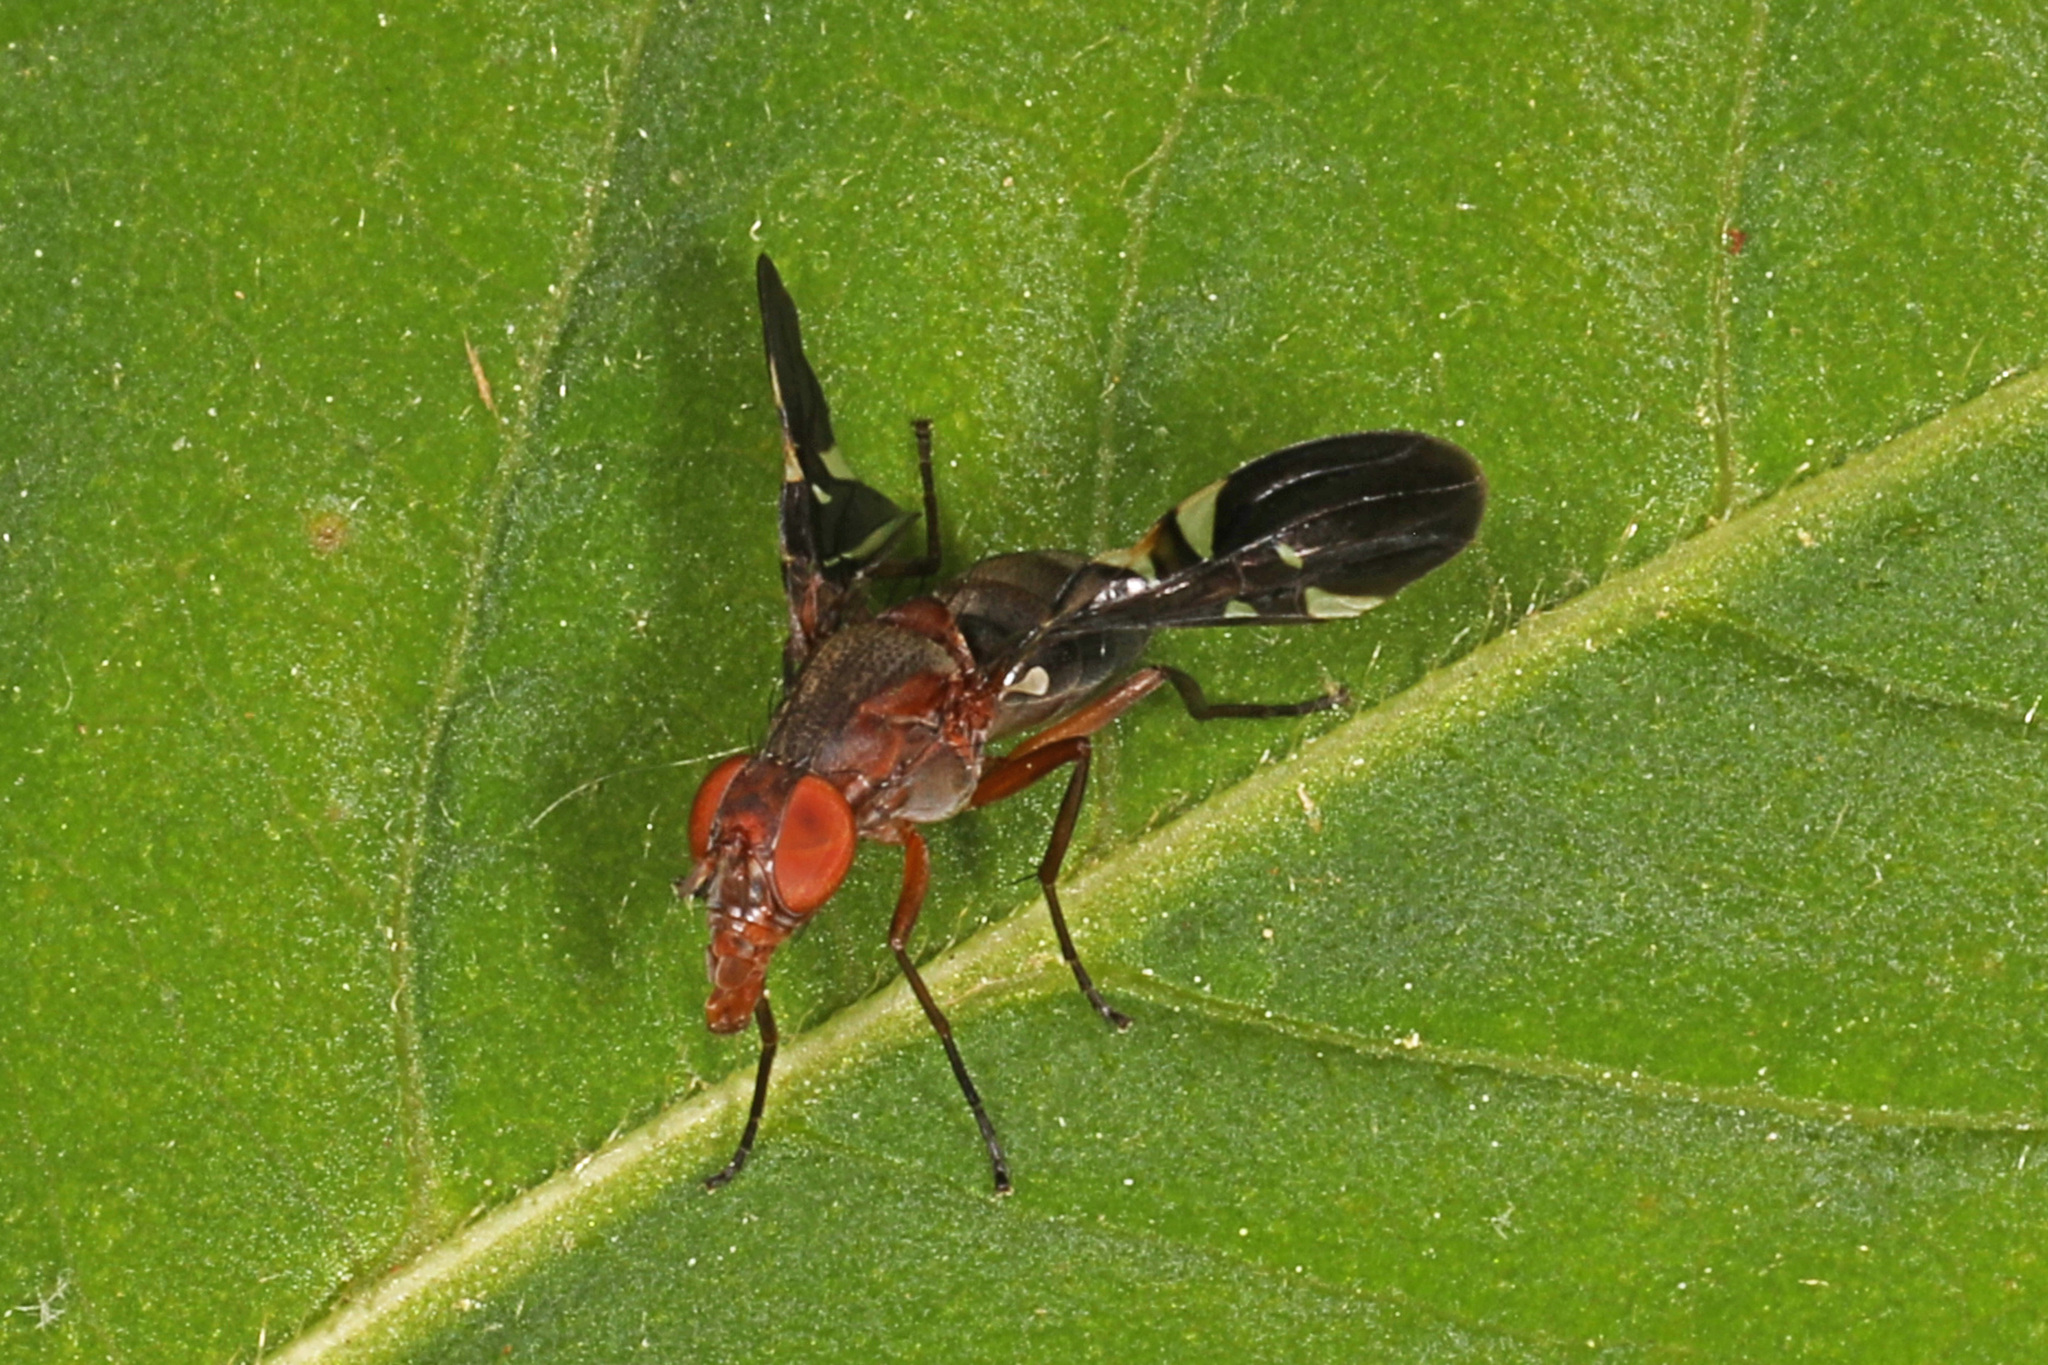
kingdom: Animalia
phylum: Arthropoda
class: Insecta
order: Diptera
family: Ulidiidae
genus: Delphinia
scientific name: Delphinia picta
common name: Common picture-winged fly
